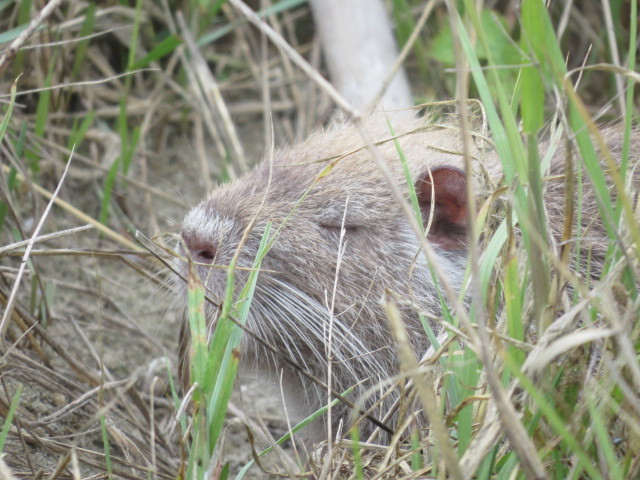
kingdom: Animalia
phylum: Chordata
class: Mammalia
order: Rodentia
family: Myocastoridae
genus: Myocastor
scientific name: Myocastor coypus
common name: Coypu
